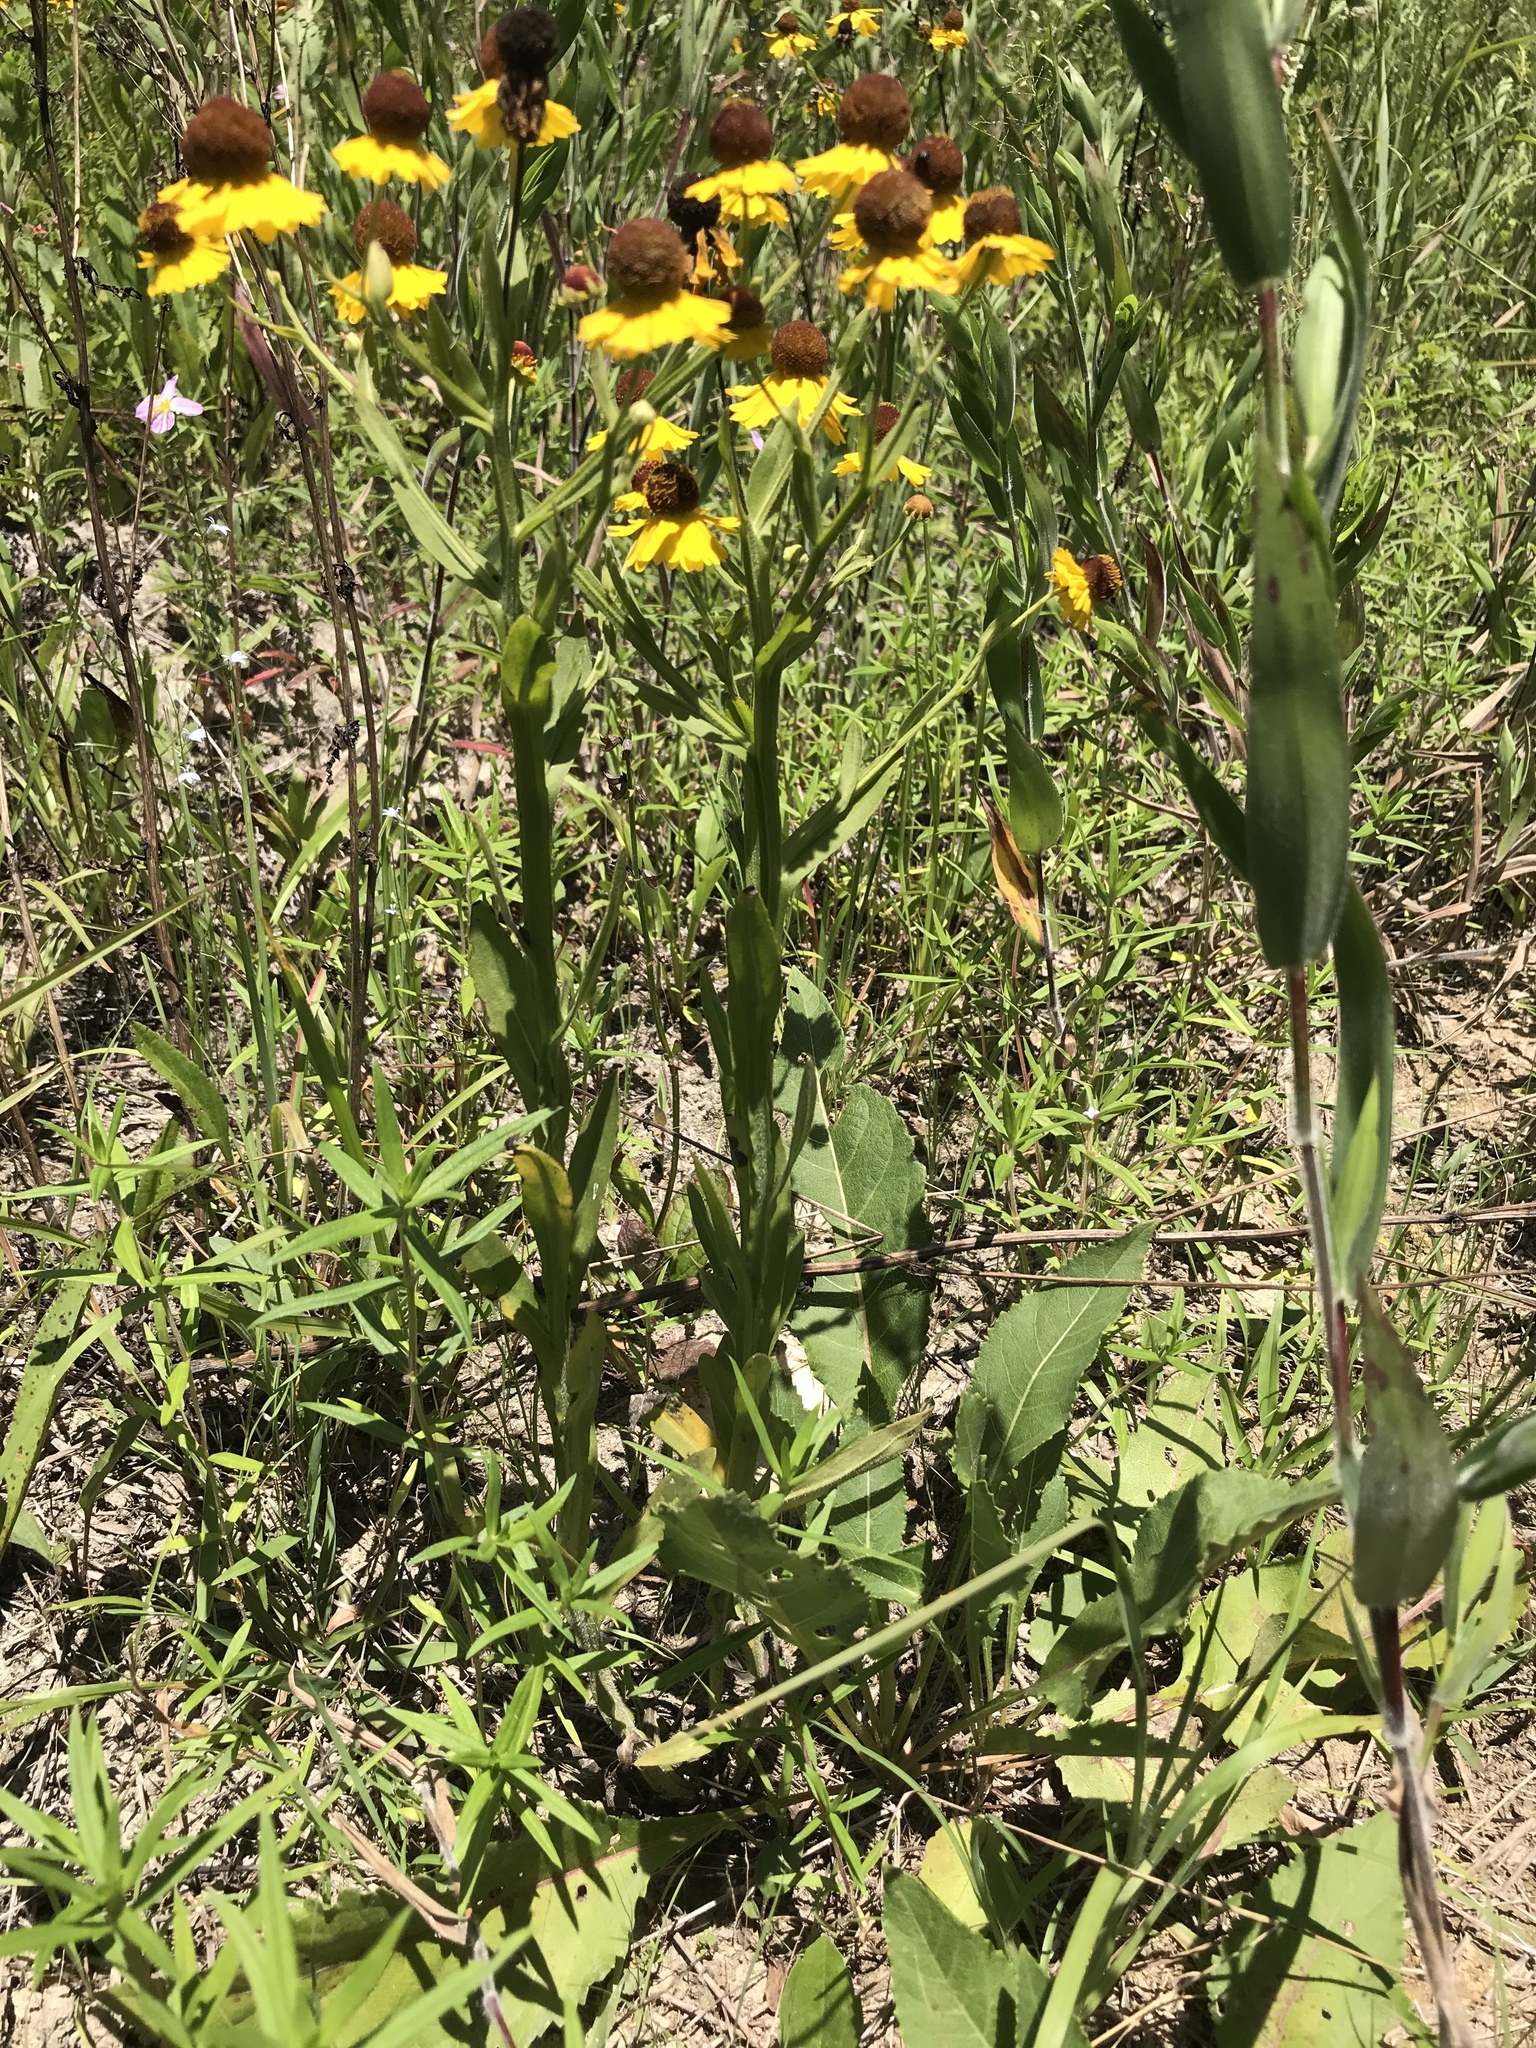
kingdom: Plantae
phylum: Tracheophyta
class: Magnoliopsida
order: Asterales
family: Asteraceae
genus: Helenium
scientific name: Helenium flexuosum
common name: Naked-flowered sneezeweed
